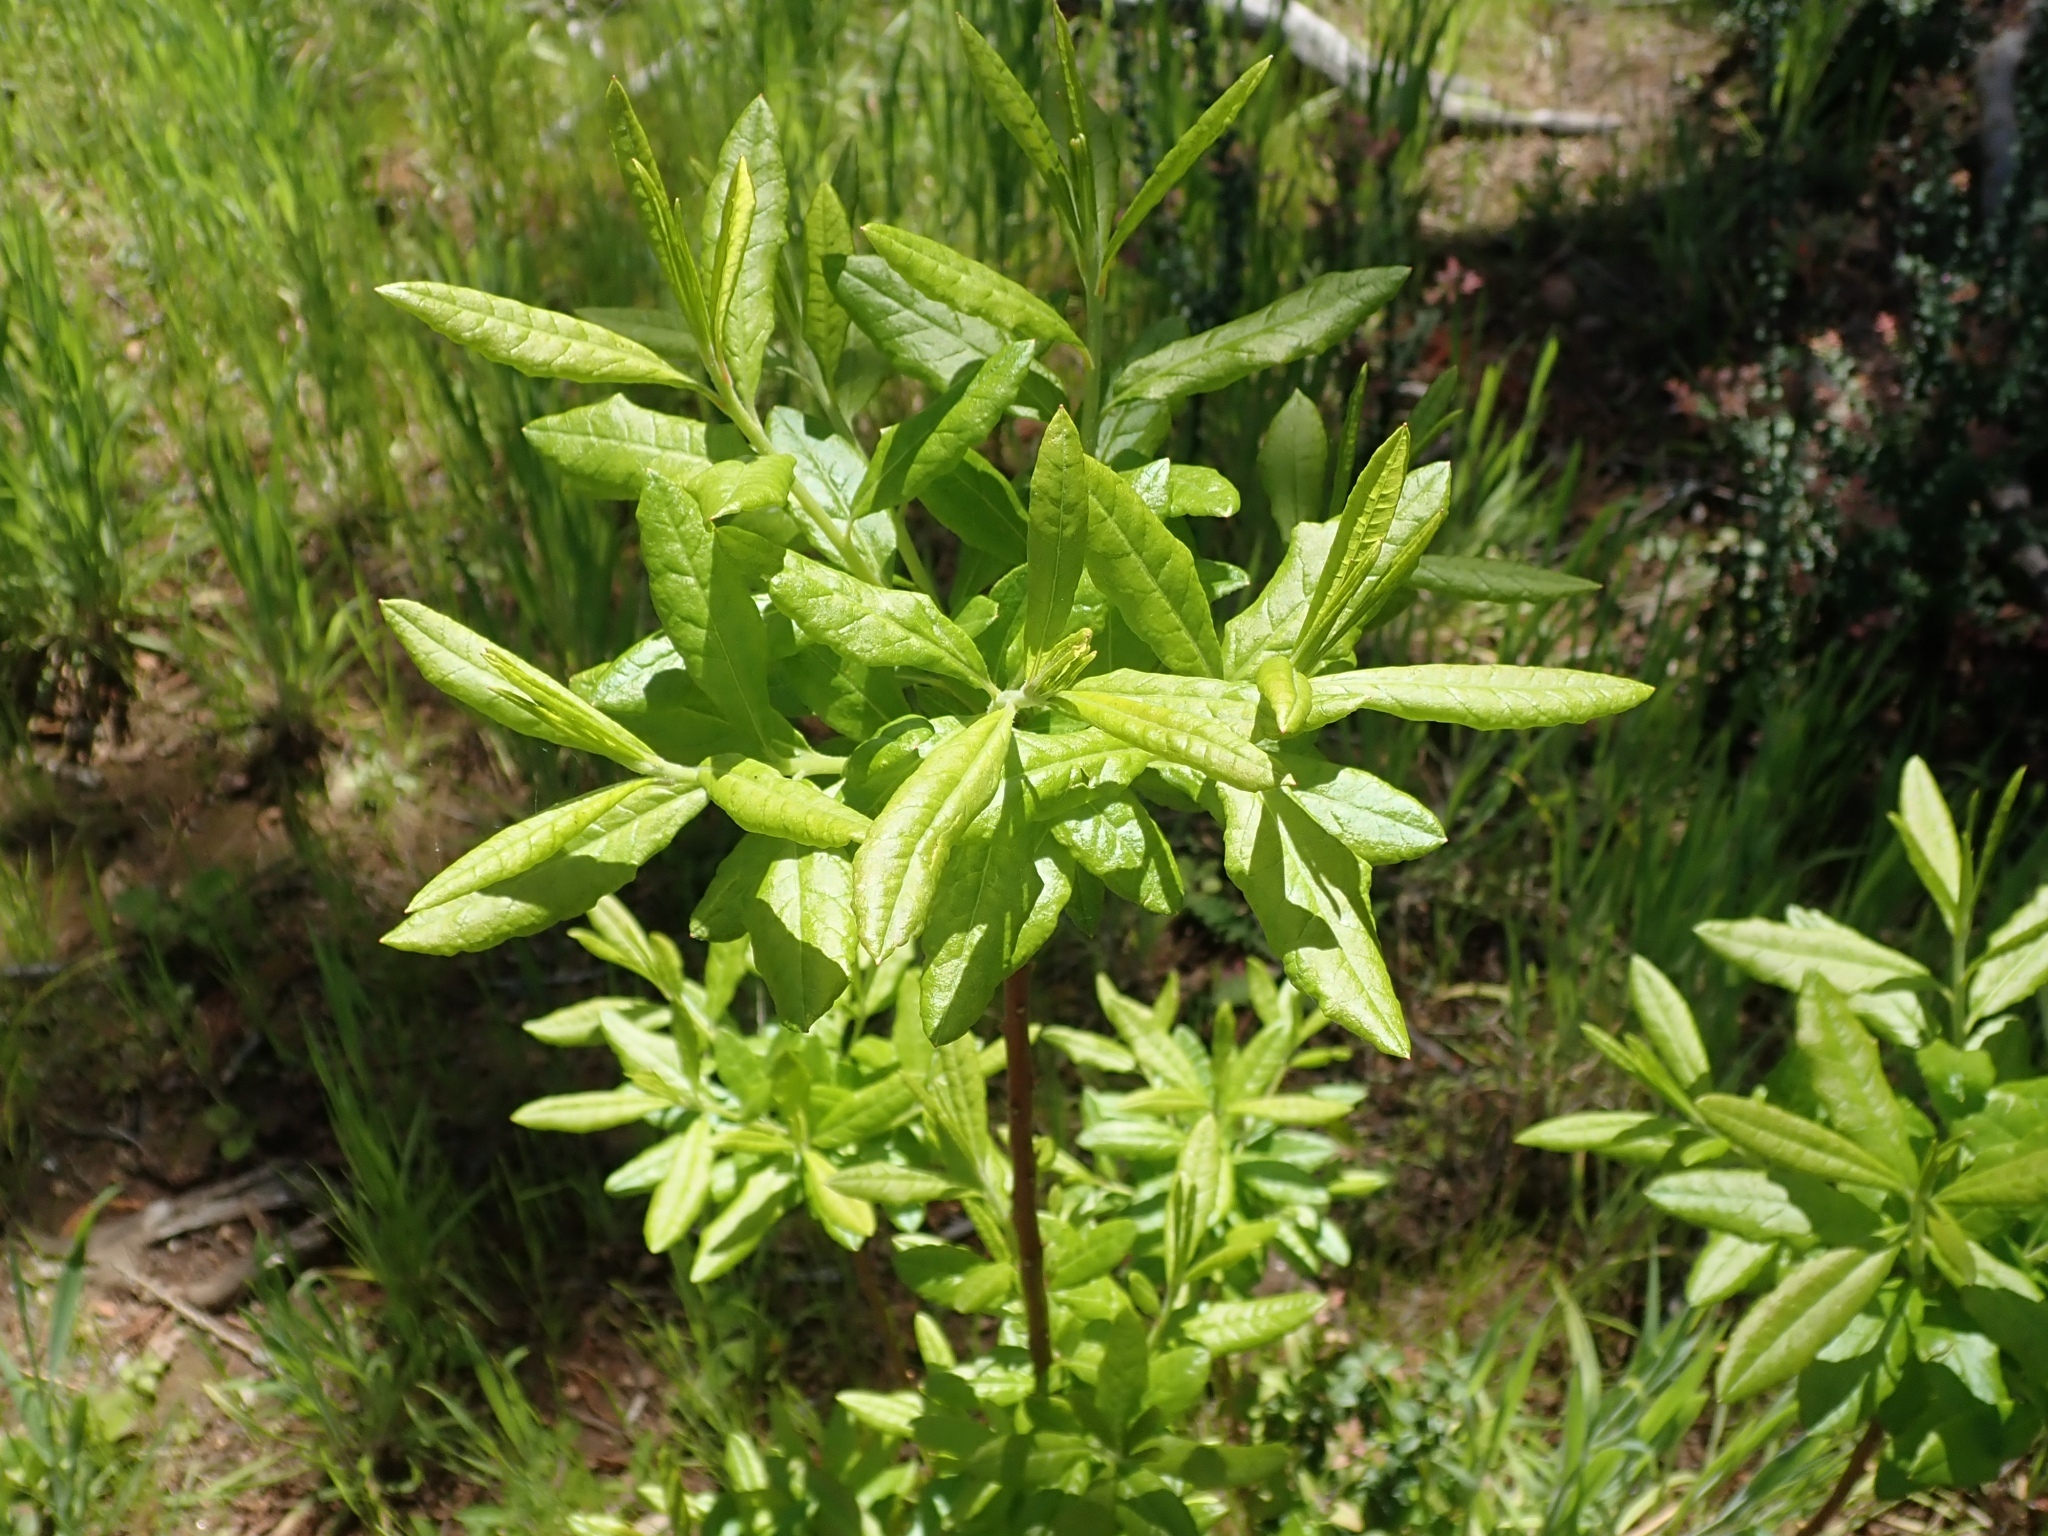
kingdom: Plantae
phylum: Tracheophyta
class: Magnoliopsida
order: Ericales
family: Ericaceae
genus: Rhododendron
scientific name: Rhododendron occidentale
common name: Western azalea
